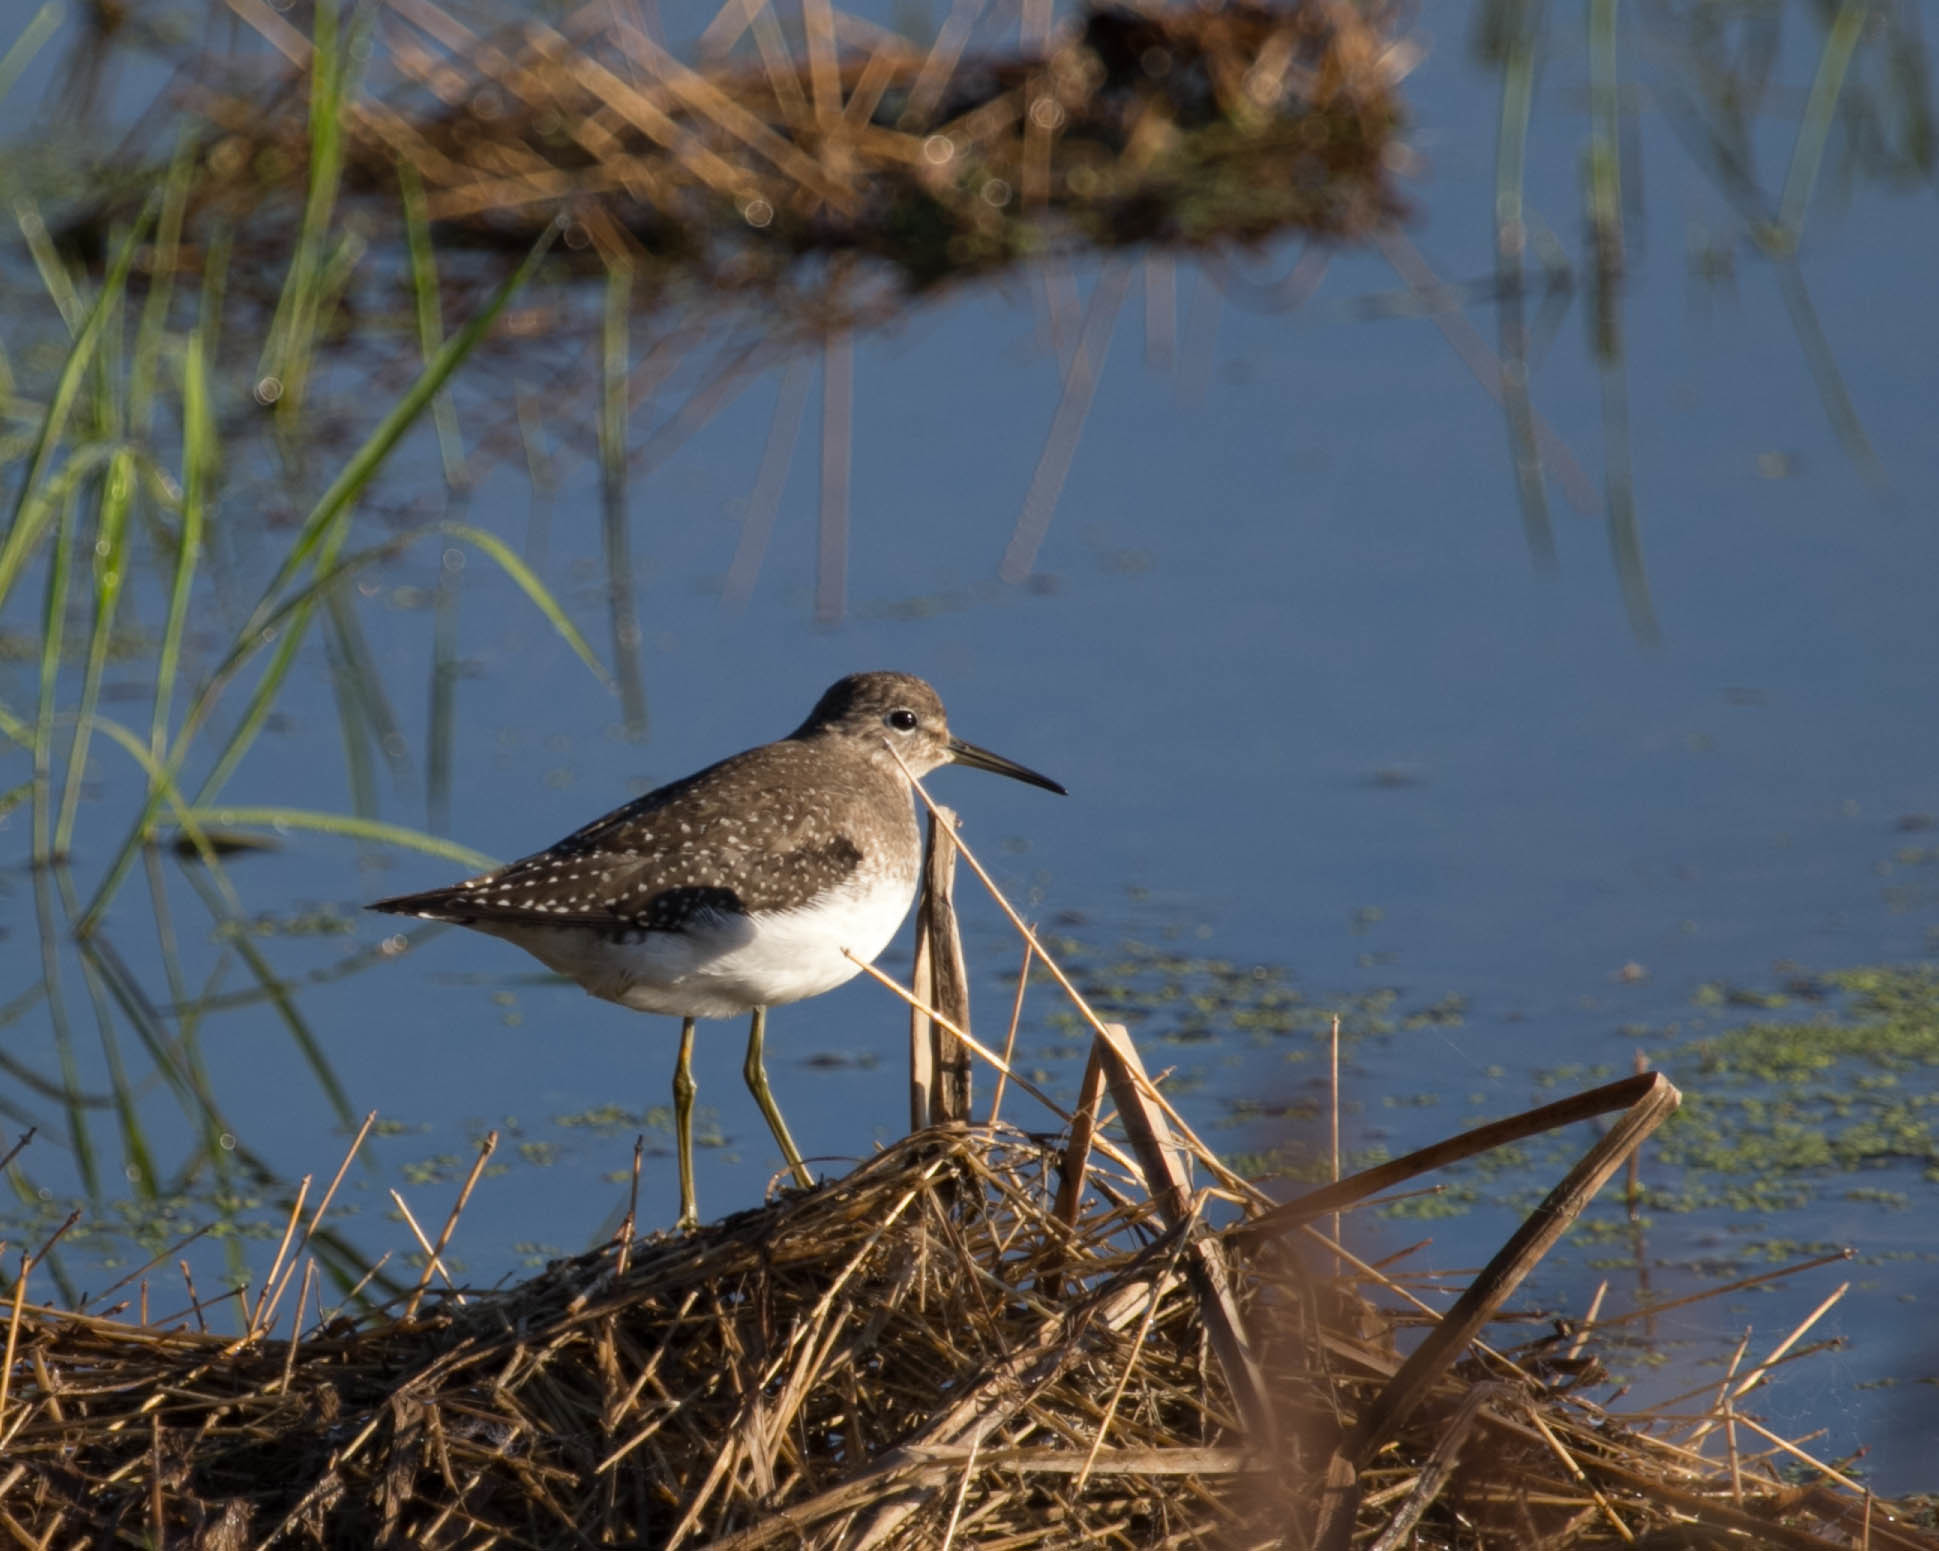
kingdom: Animalia
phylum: Chordata
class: Aves
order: Charadriiformes
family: Scolopacidae
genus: Tringa
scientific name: Tringa solitaria
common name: Solitary sandpiper
